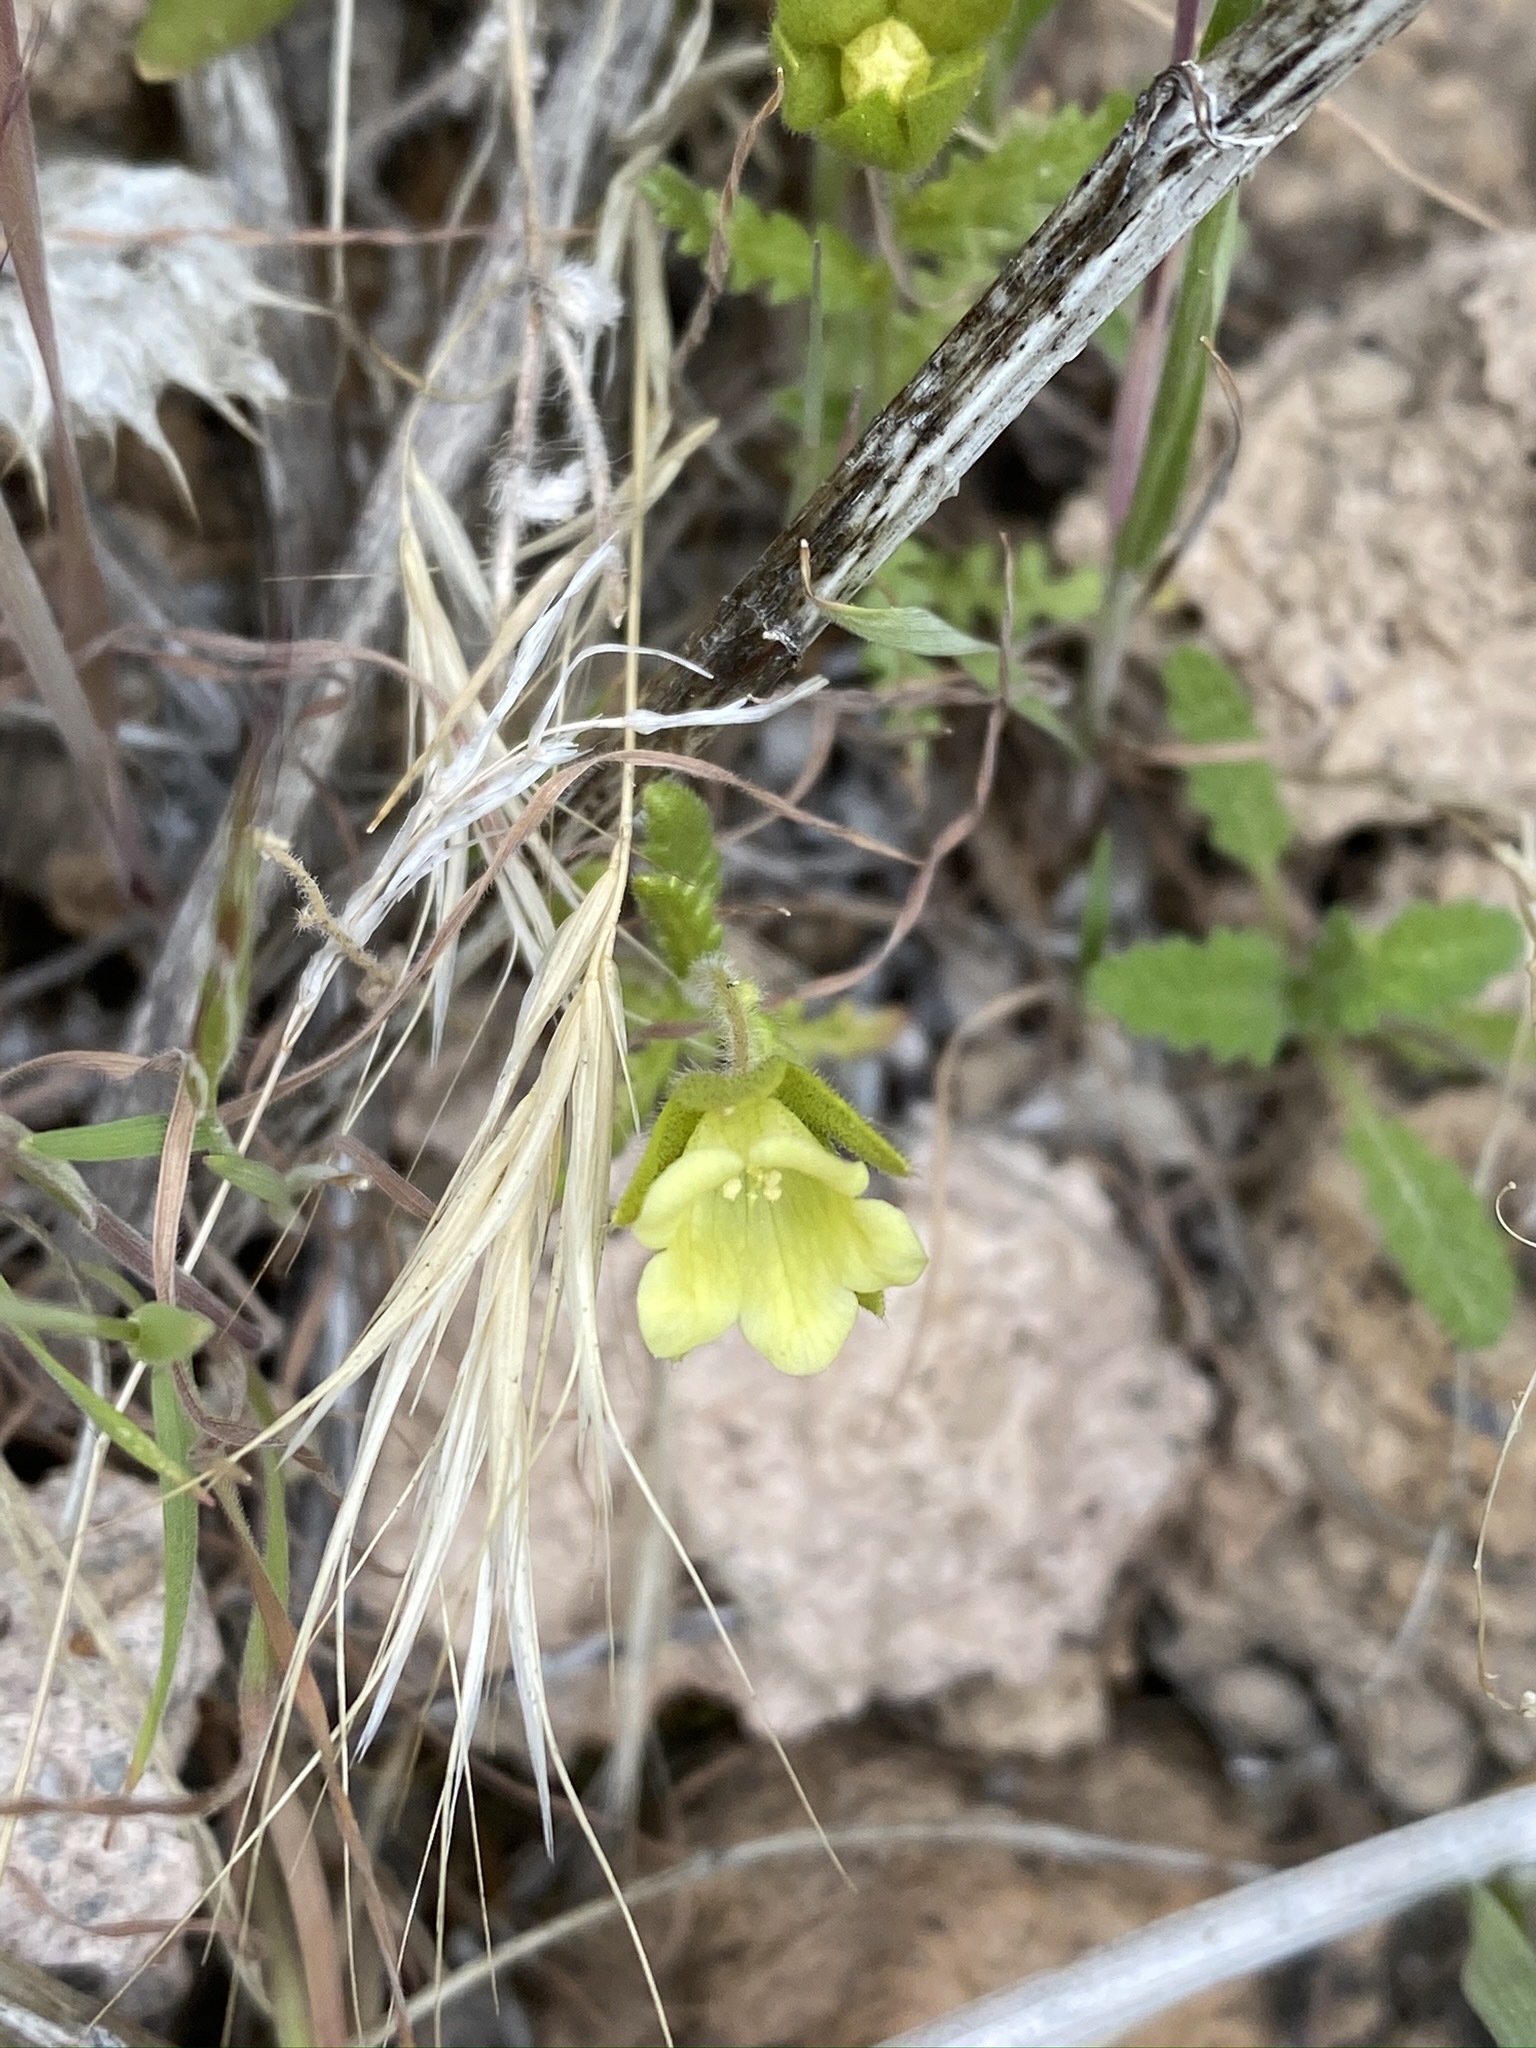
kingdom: Plantae
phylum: Tracheophyta
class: Magnoliopsida
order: Boraginales
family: Hydrophyllaceae
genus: Emmenanthe
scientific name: Emmenanthe penduliflora
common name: Whispering-bells
